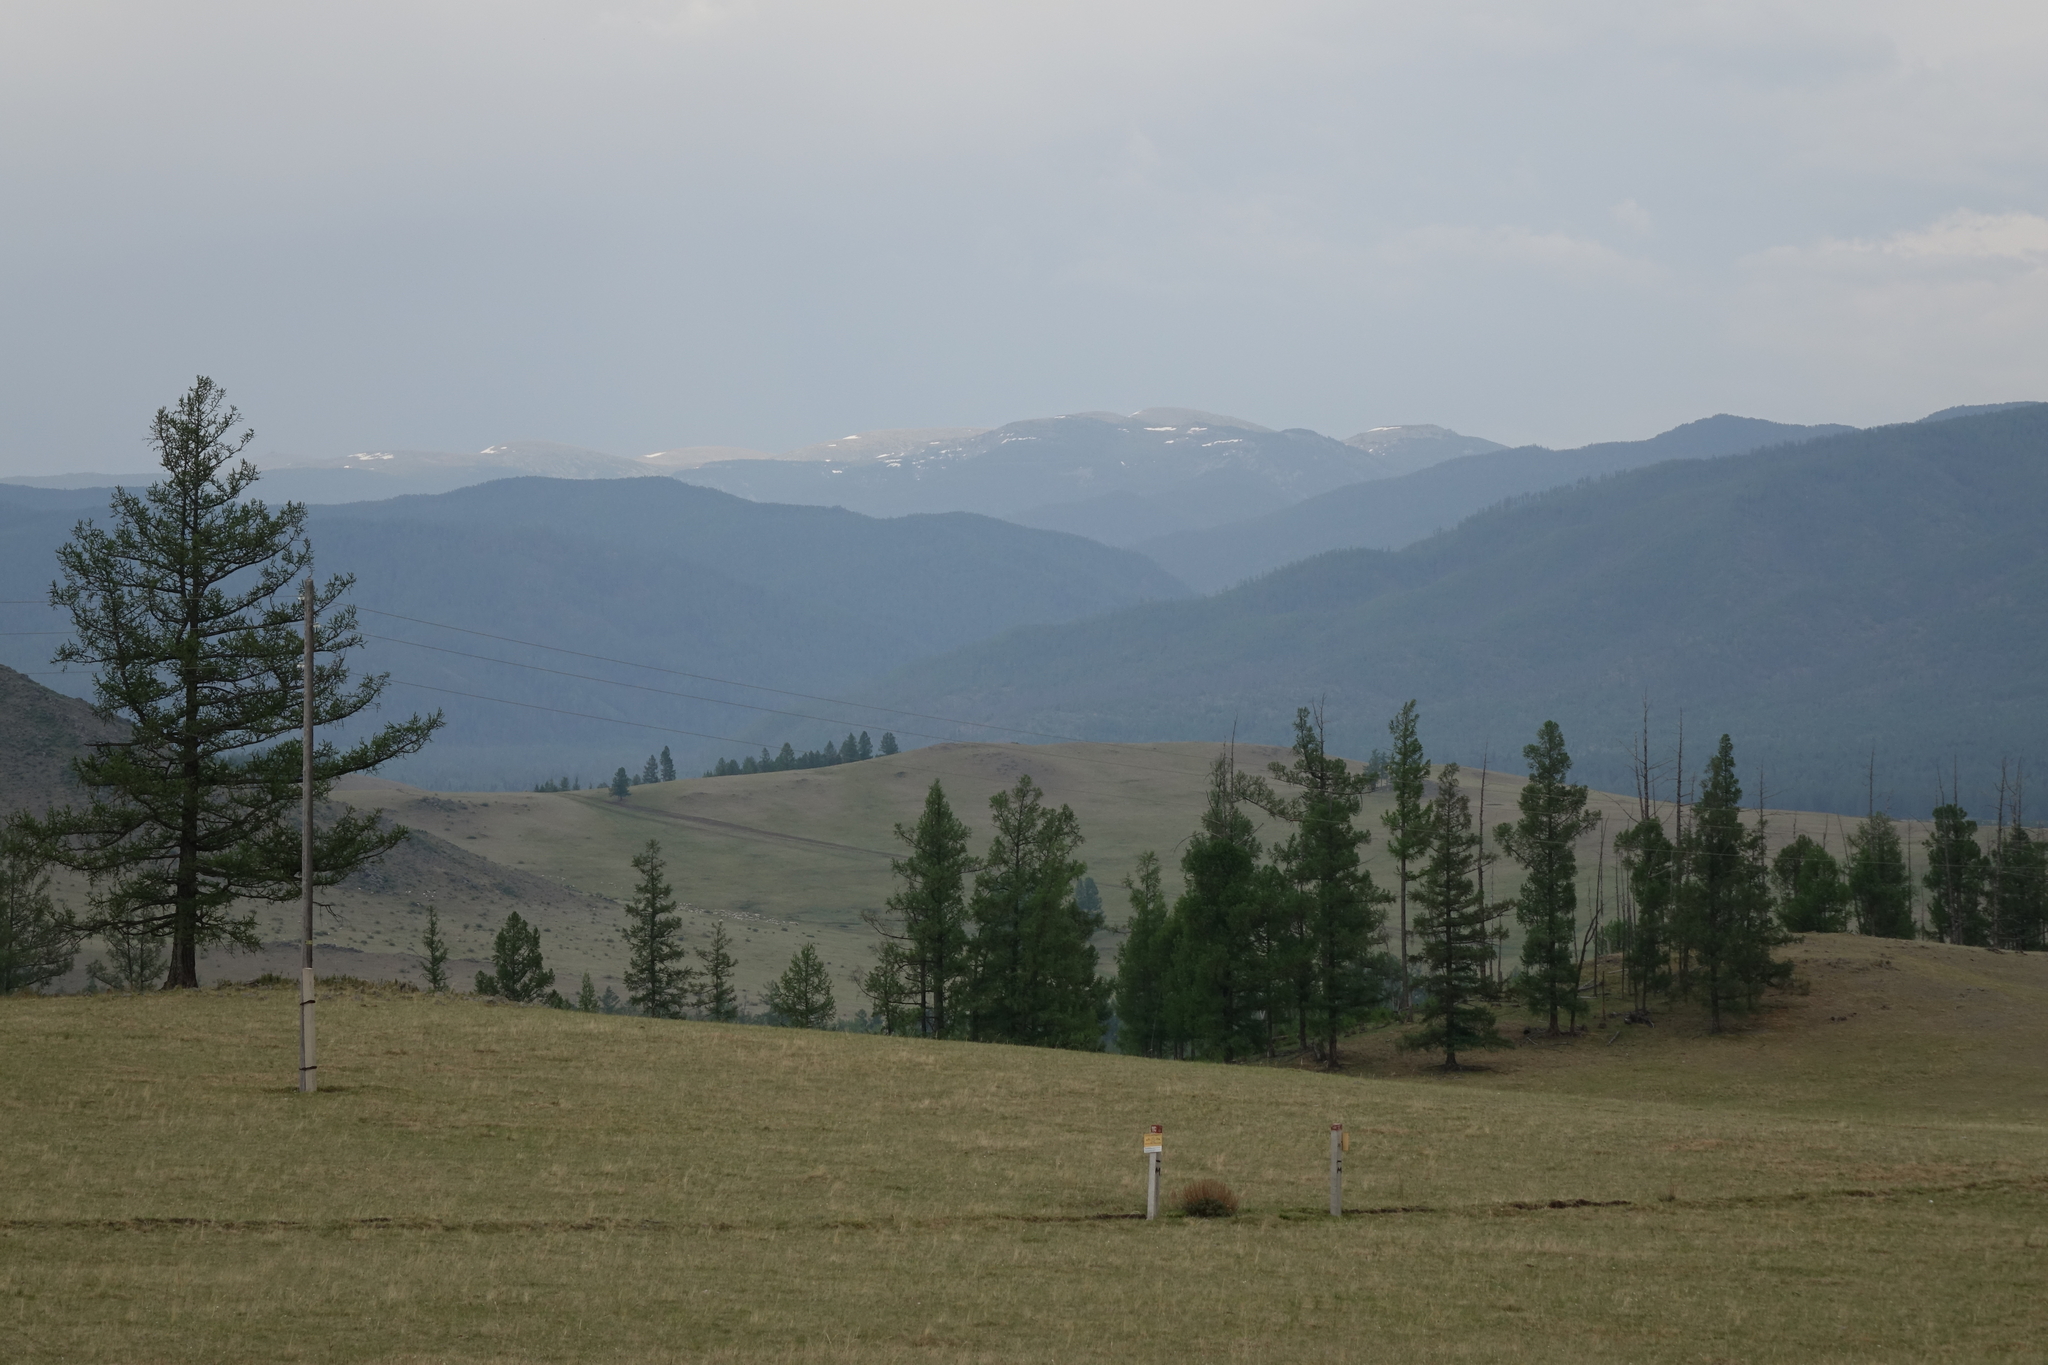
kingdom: Plantae
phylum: Tracheophyta
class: Pinopsida
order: Pinales
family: Pinaceae
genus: Larix
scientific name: Larix sibirica
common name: Siberian larch
